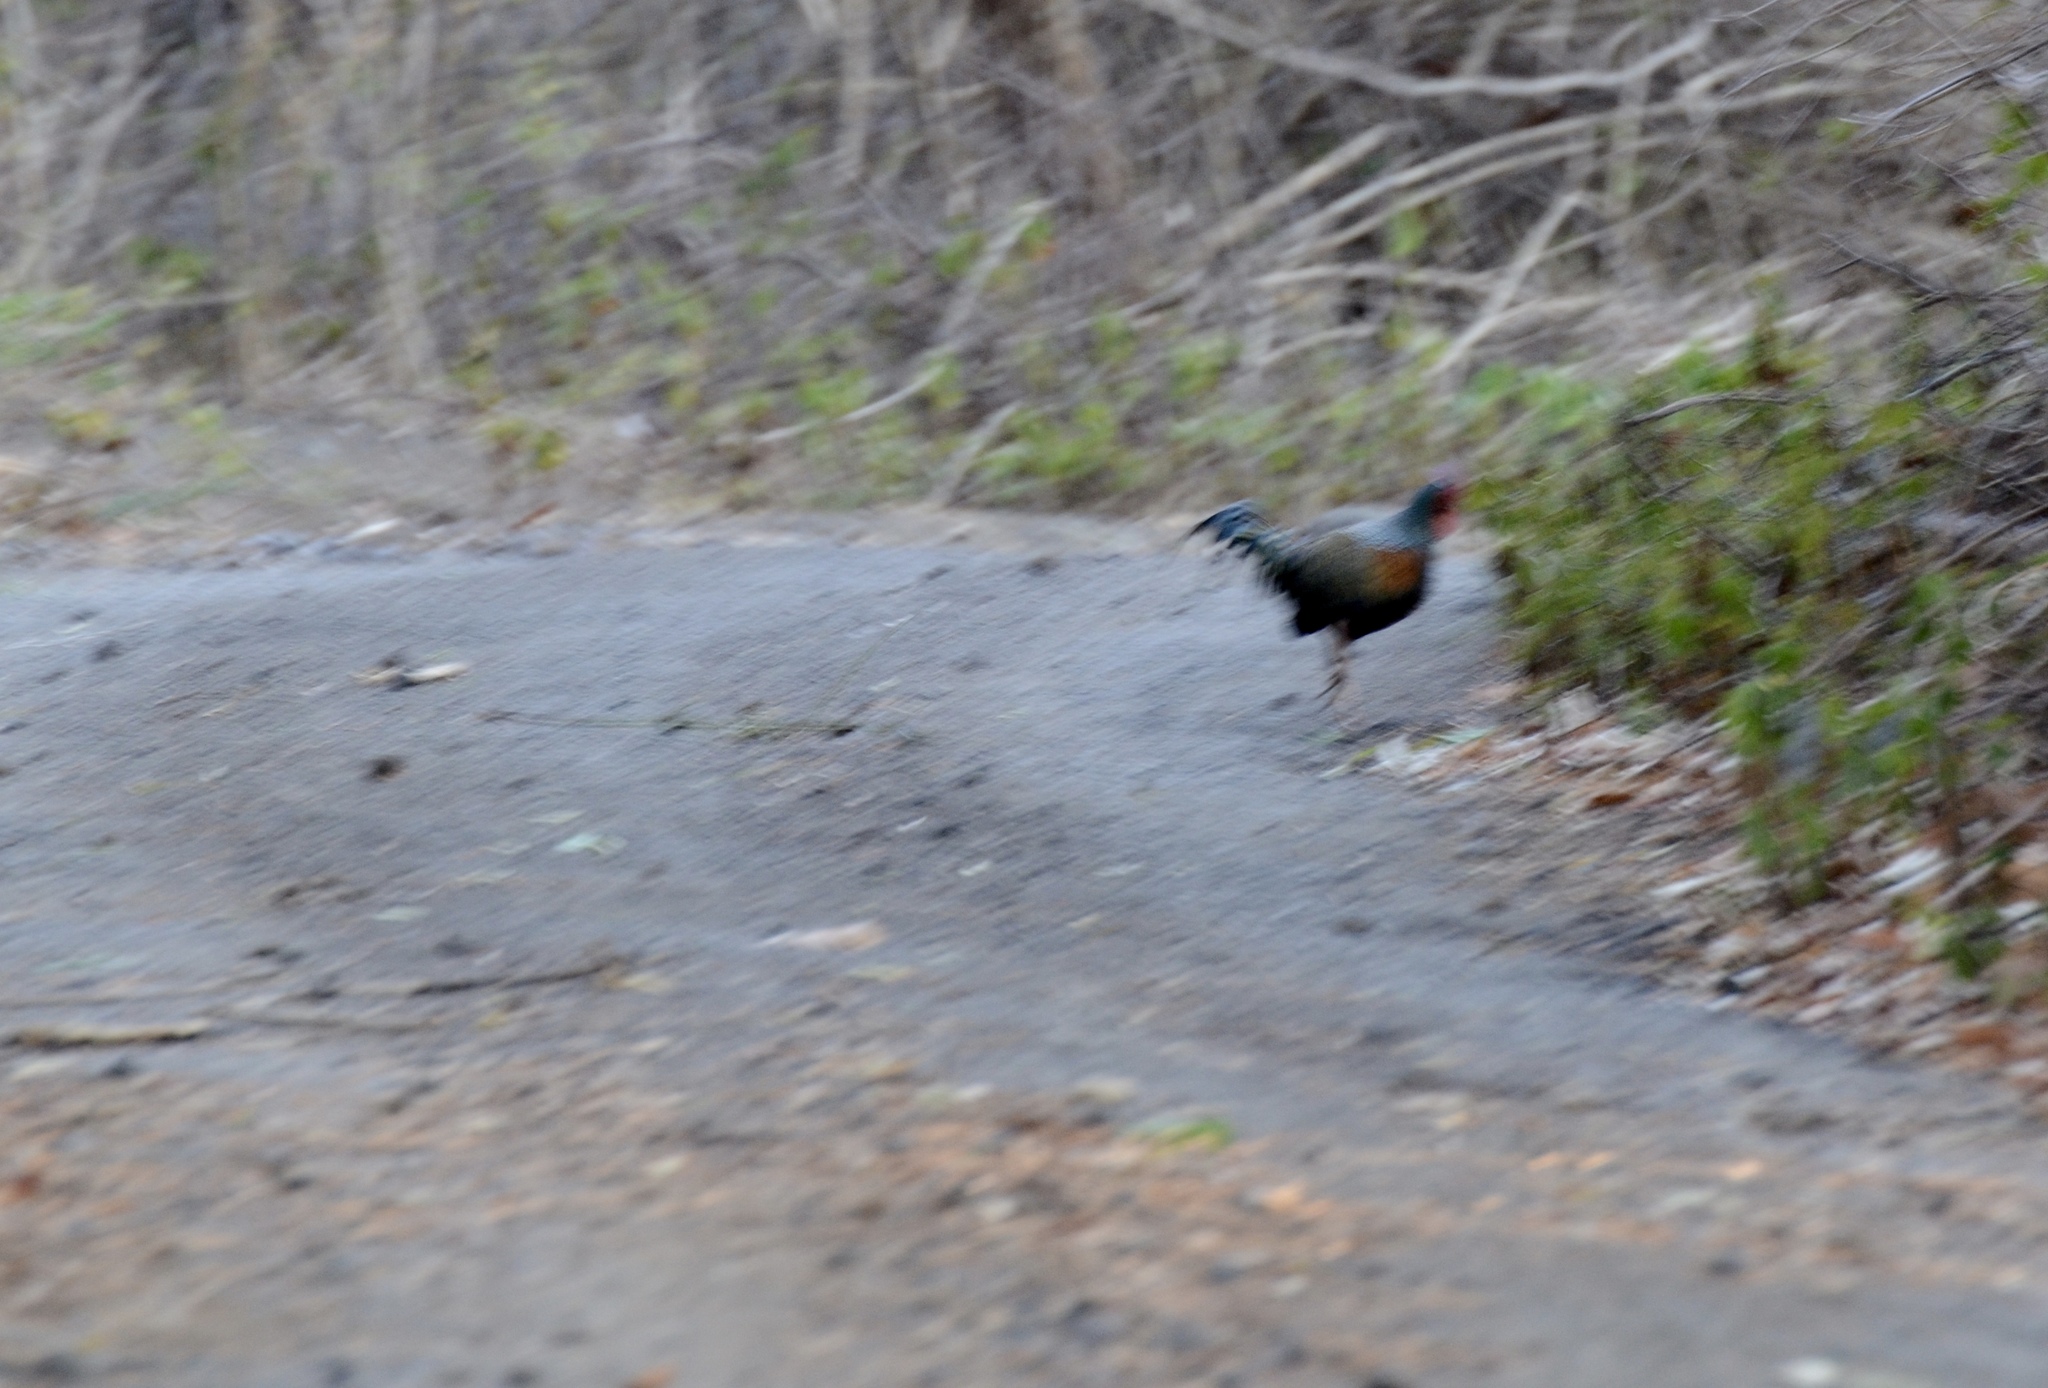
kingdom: Animalia
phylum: Chordata
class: Aves
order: Galliformes
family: Phasianidae
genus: Gallus
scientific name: Gallus varius
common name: Green junglefowl
